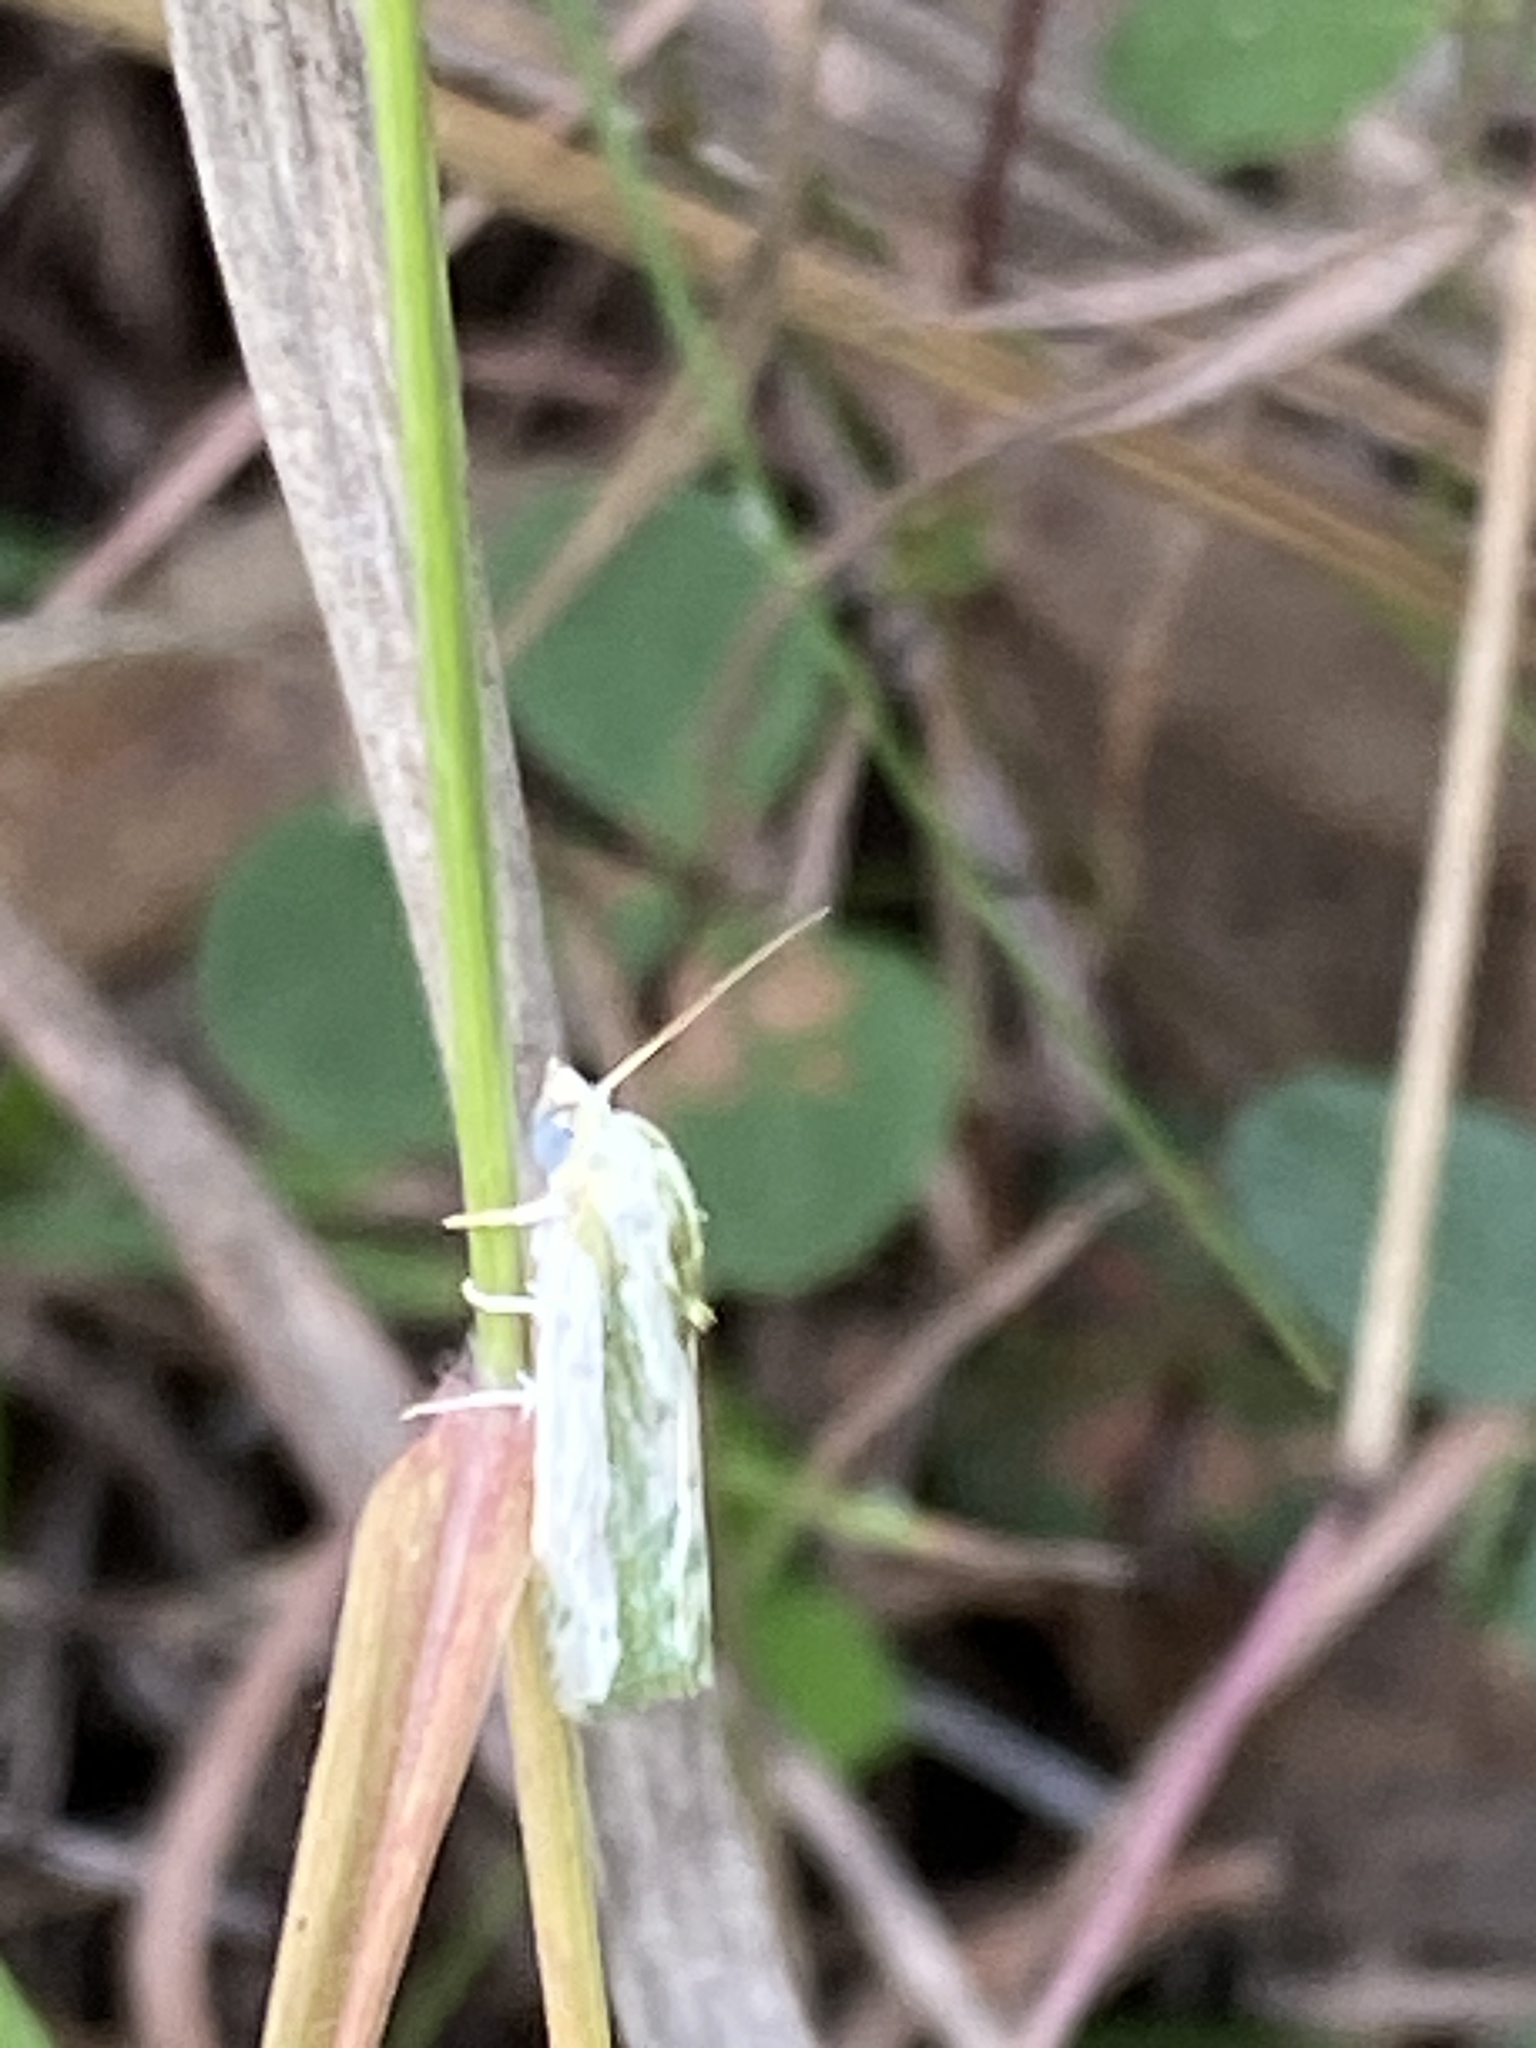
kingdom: Animalia
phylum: Arthropoda
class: Insecta
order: Lepidoptera
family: Nolidae
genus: Earias
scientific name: Earias huegeliana
